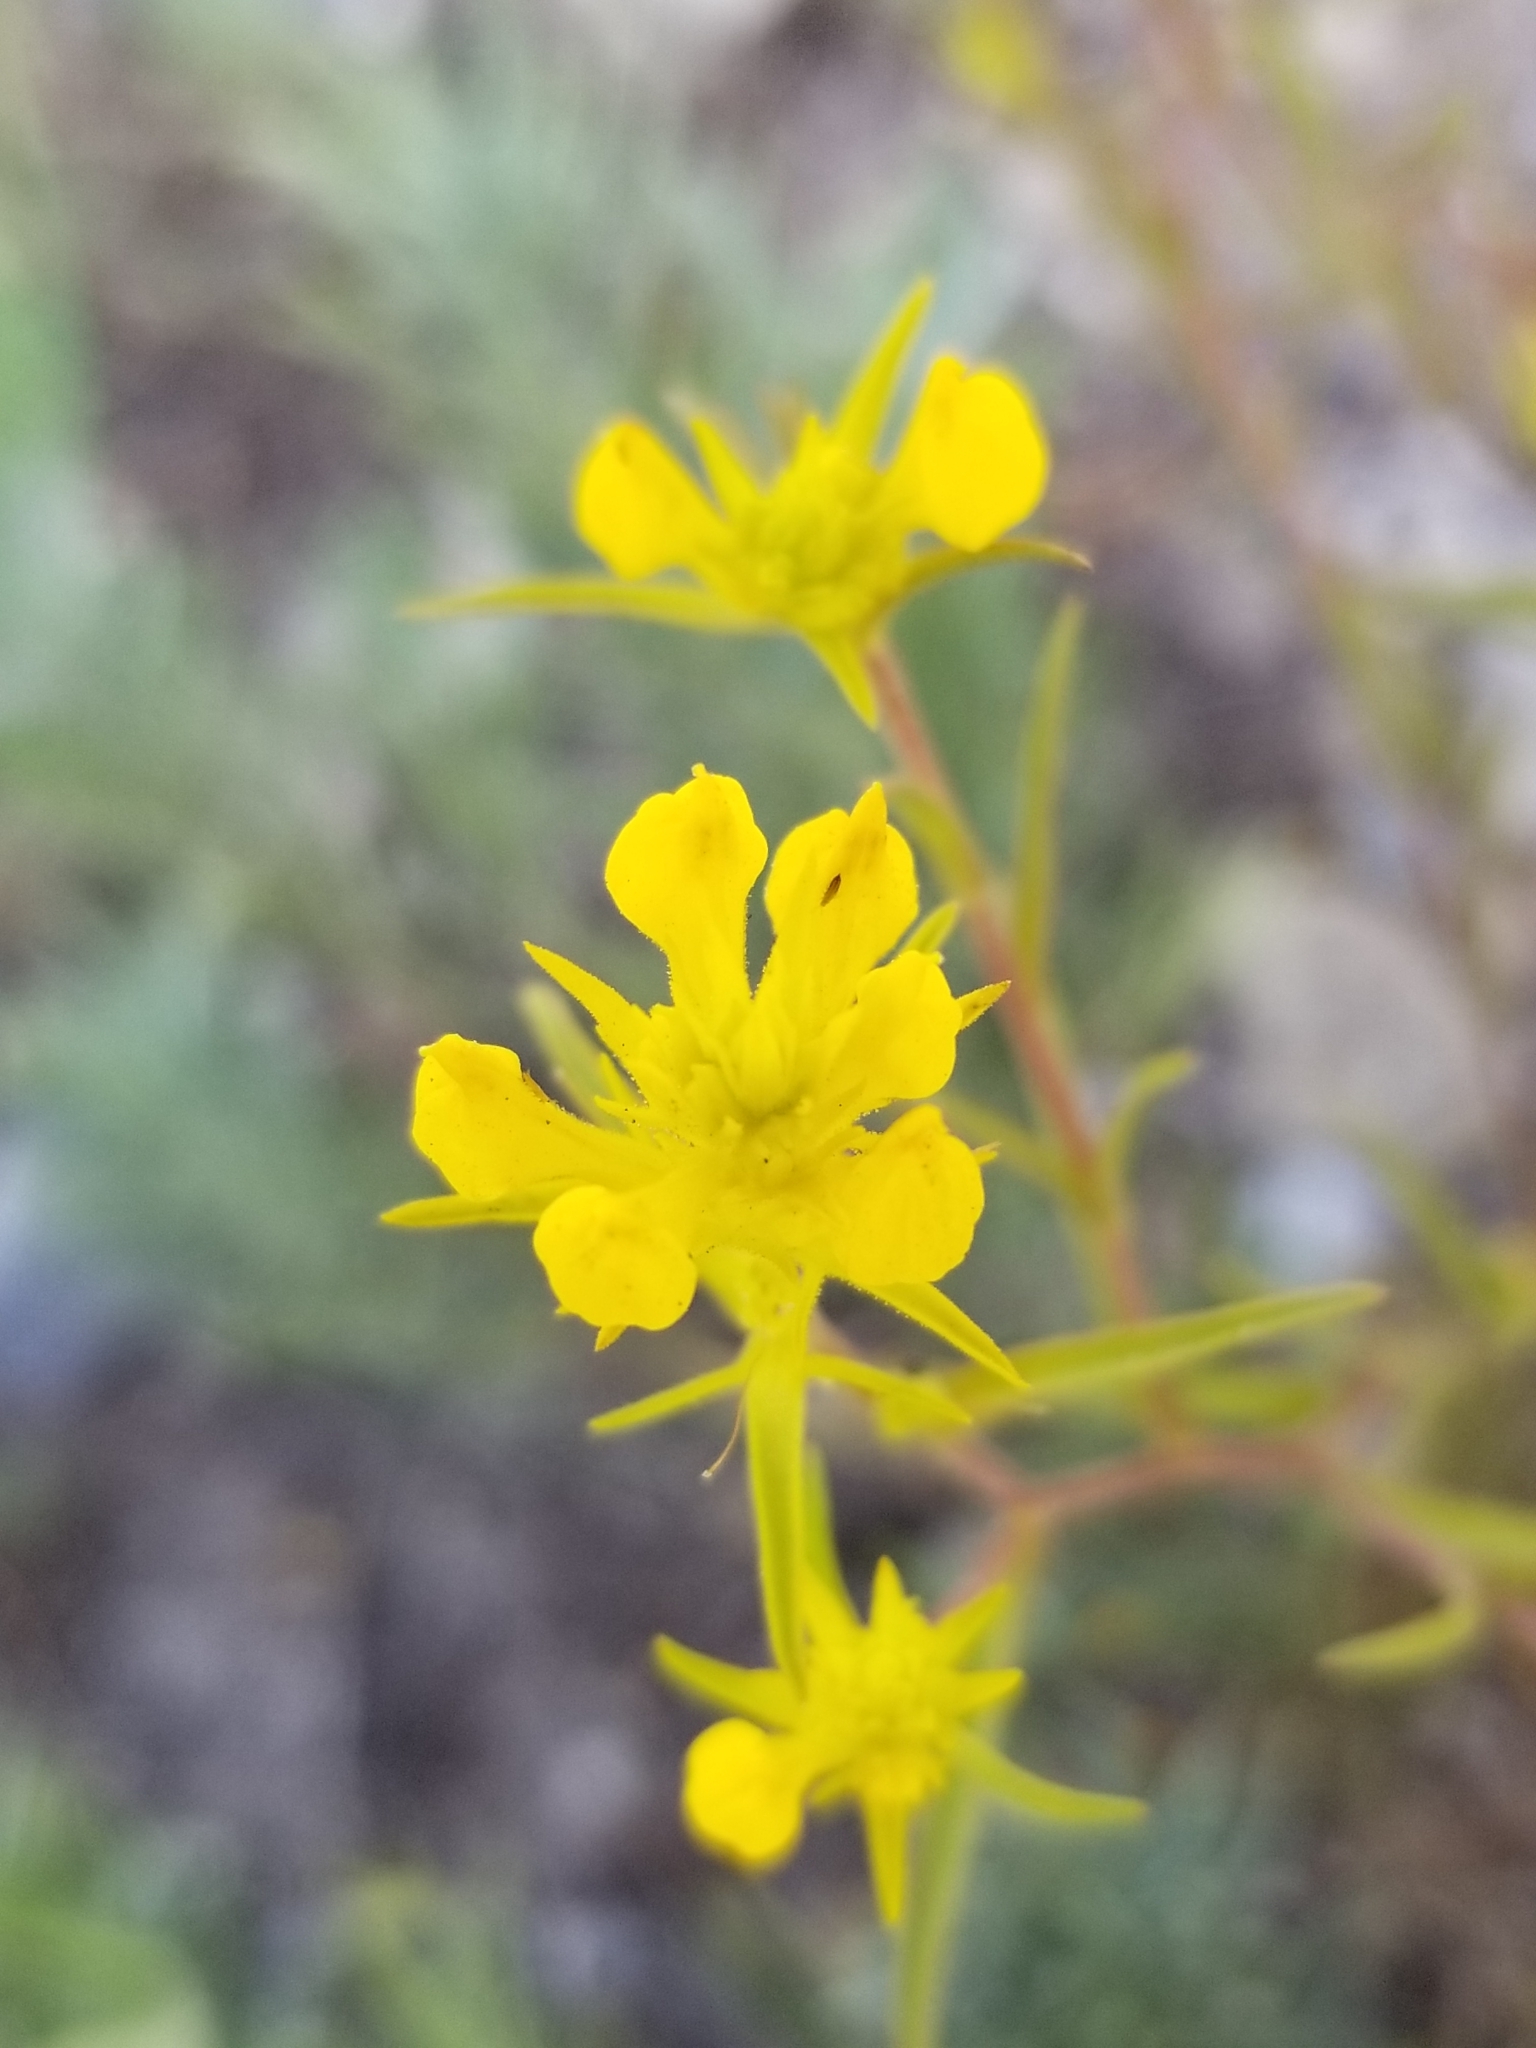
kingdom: Plantae
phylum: Tracheophyta
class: Magnoliopsida
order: Lamiales
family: Orobanchaceae
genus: Orthocarpus
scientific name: Orthocarpus tolmiei
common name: Tolmie's owl-clover
